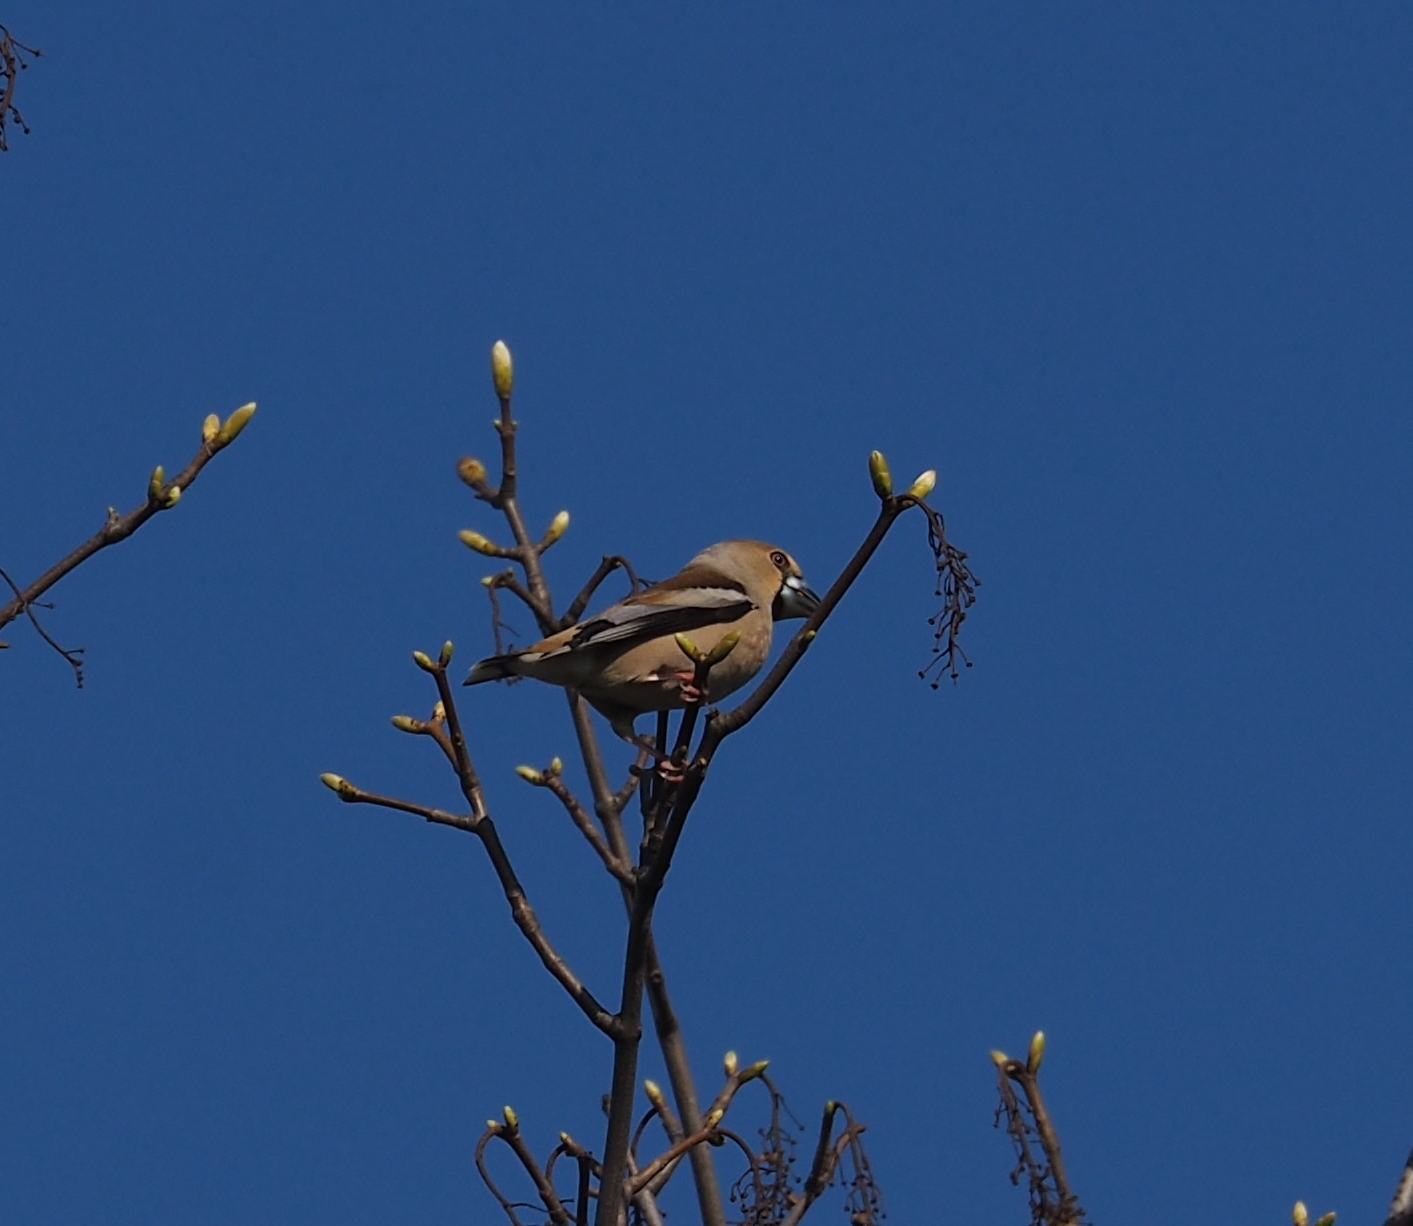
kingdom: Animalia
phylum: Chordata
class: Aves
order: Passeriformes
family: Fringillidae
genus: Coccothraustes
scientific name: Coccothraustes coccothraustes
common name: Hawfinch
